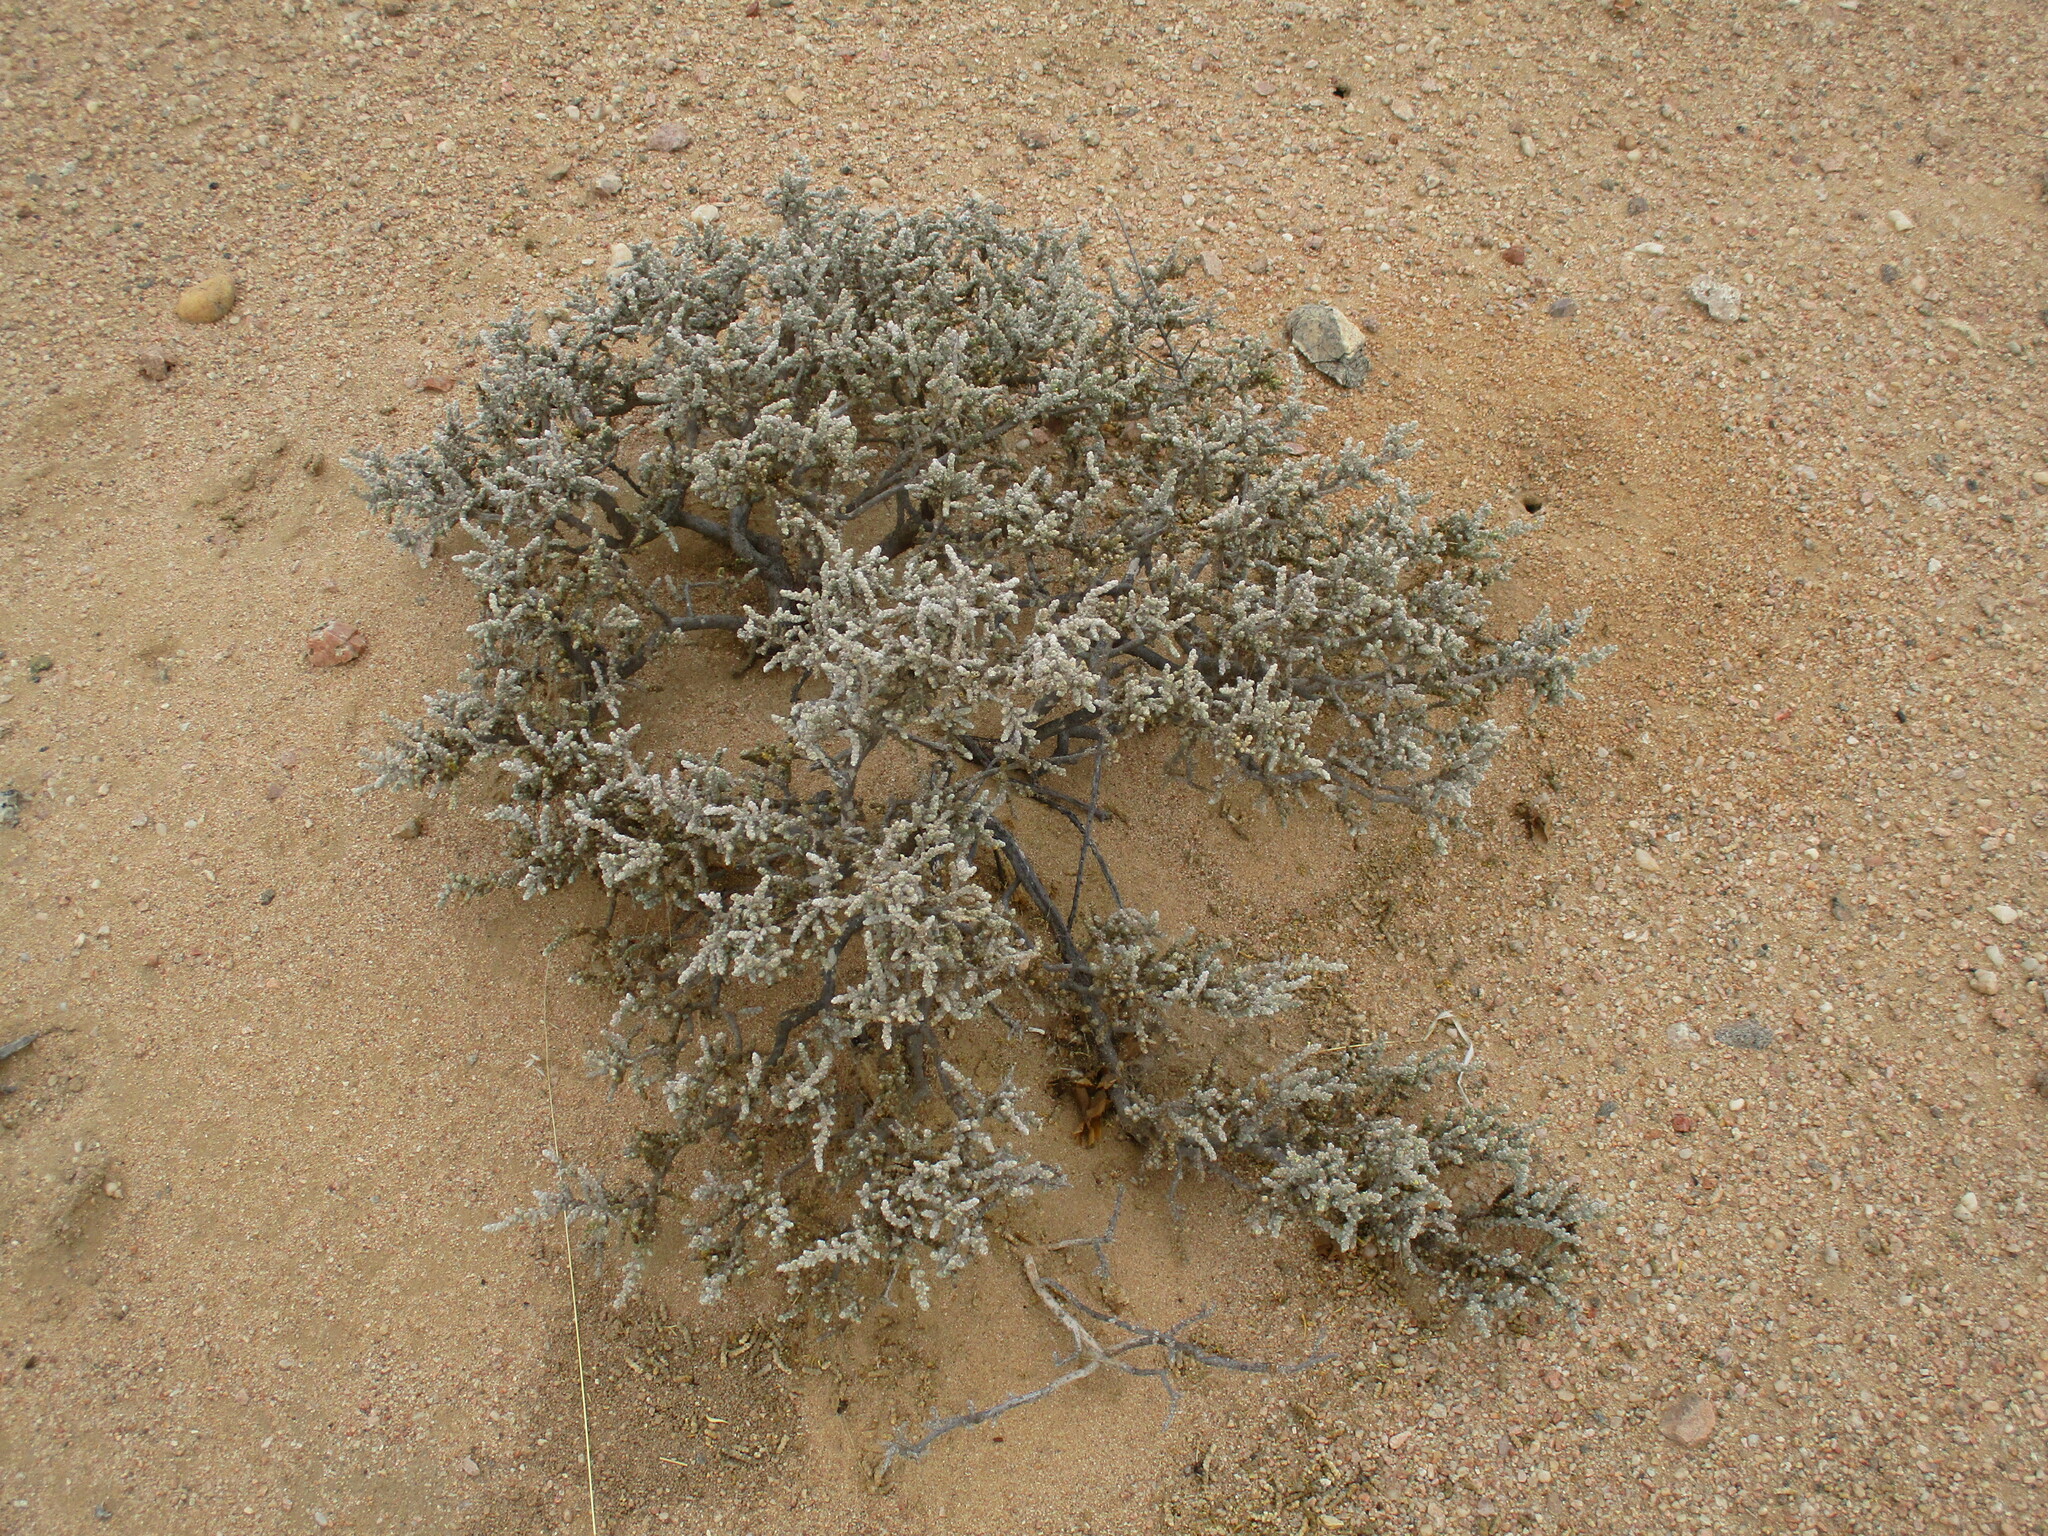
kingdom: Plantae
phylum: Tracheophyta
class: Magnoliopsida
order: Caryophyllales
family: Amaranthaceae
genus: Caroxylon
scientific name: Caroxylon tuberculatum
